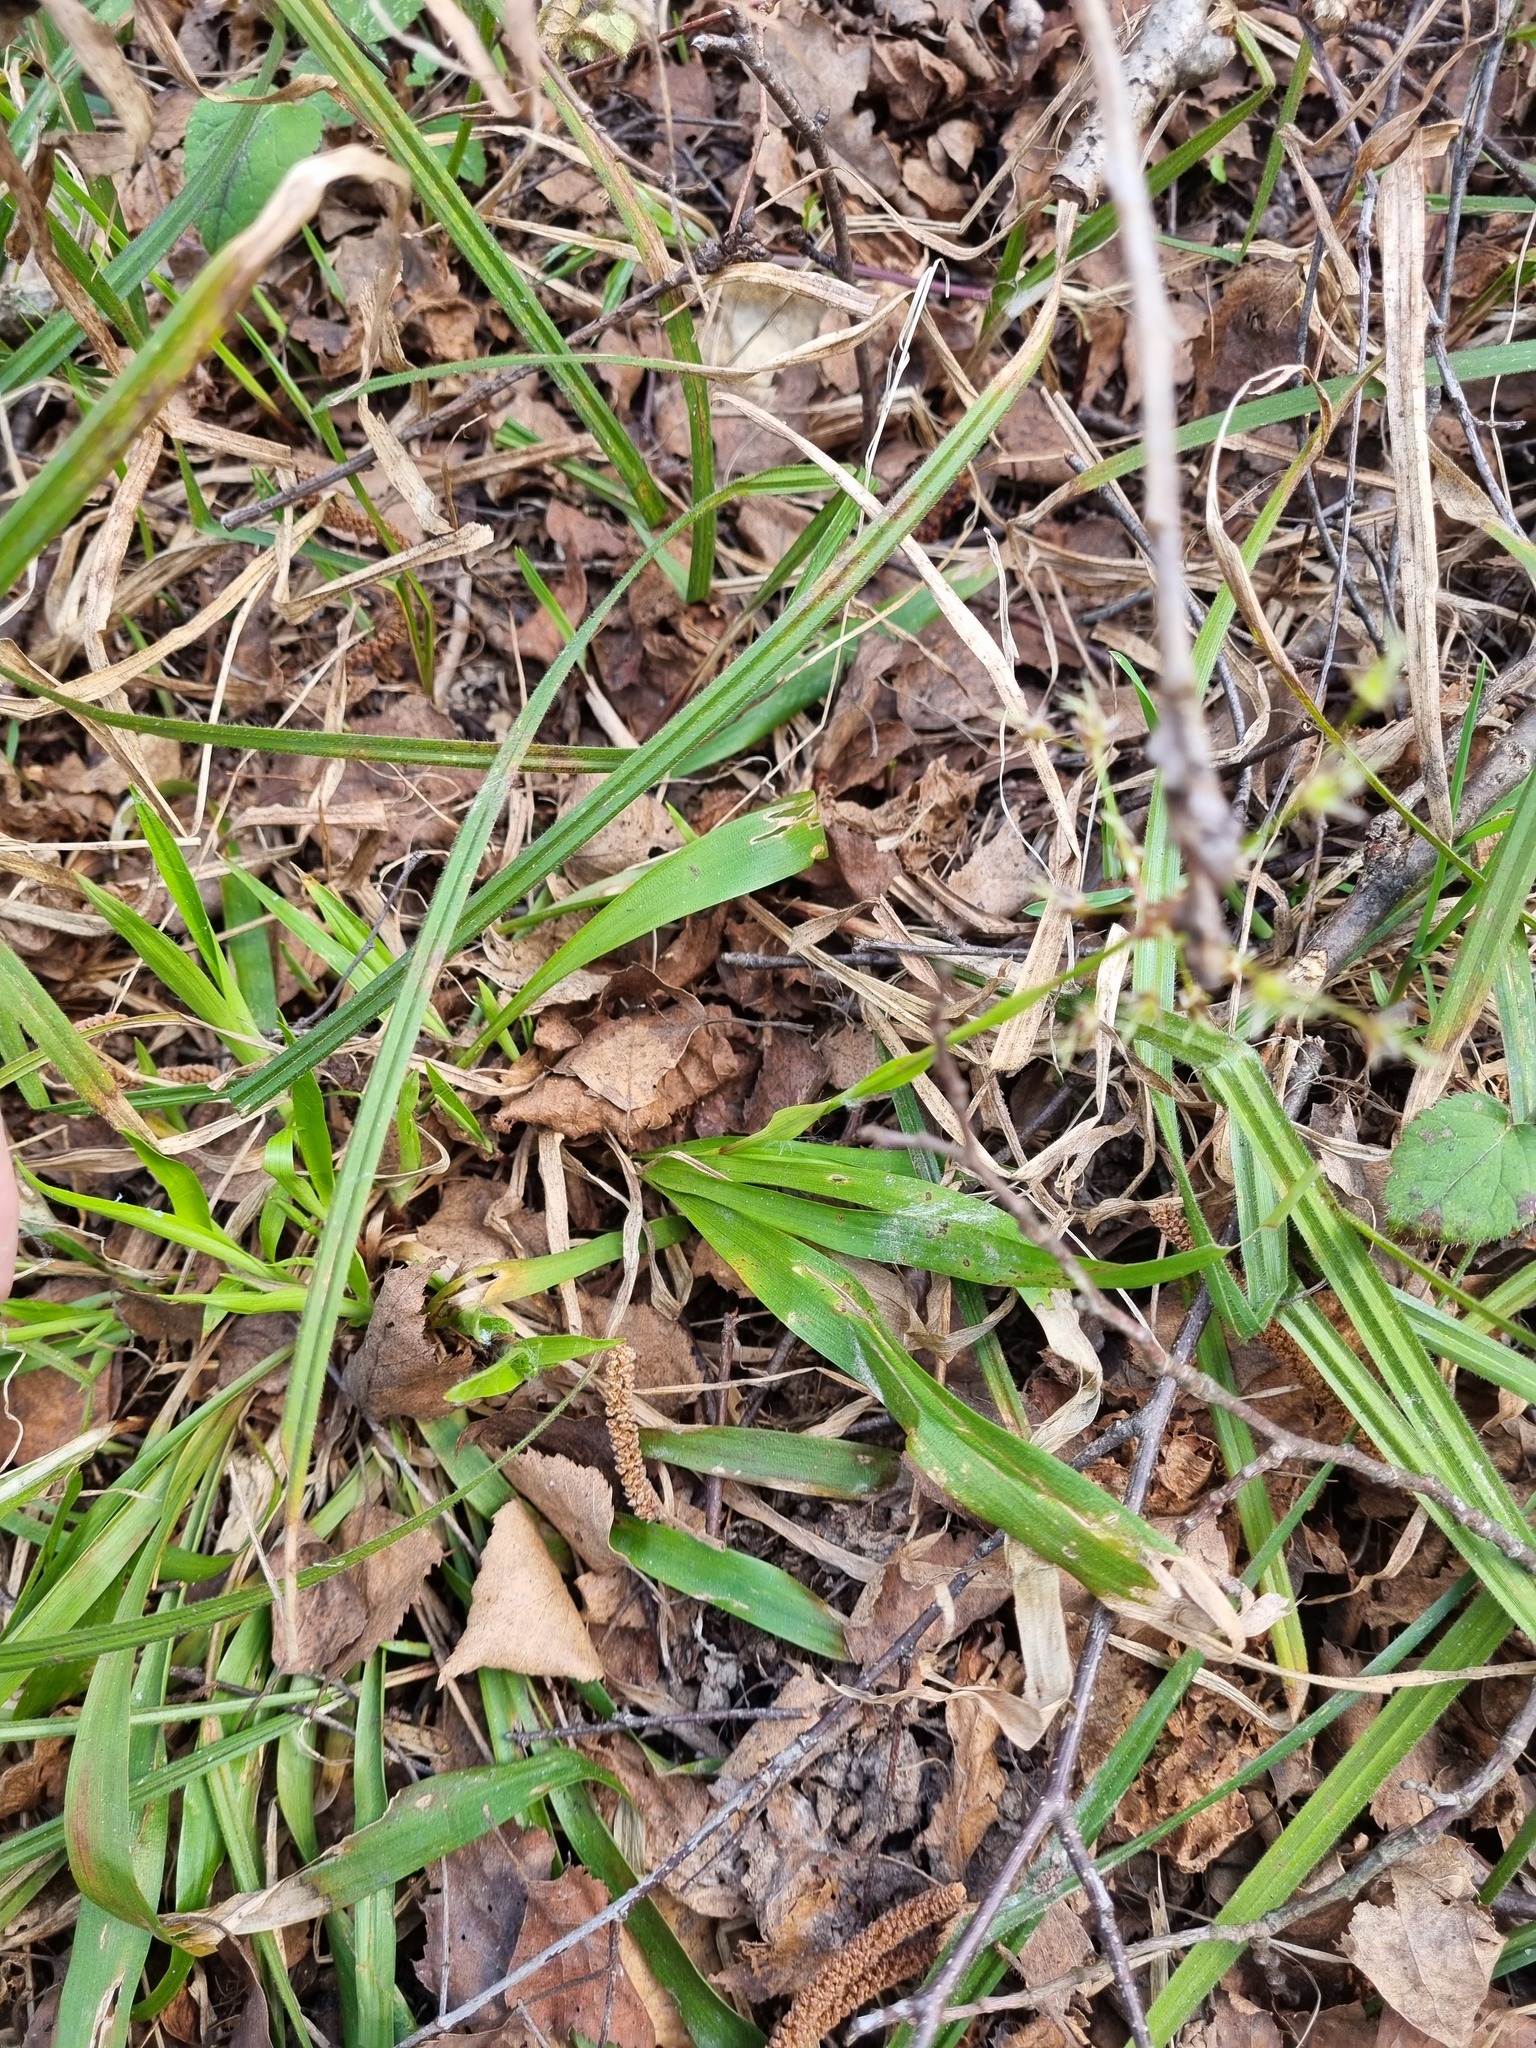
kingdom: Plantae
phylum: Tracheophyta
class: Liliopsida
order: Poales
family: Juncaceae
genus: Luzula
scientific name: Luzula pilosa
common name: Hairy wood-rush
